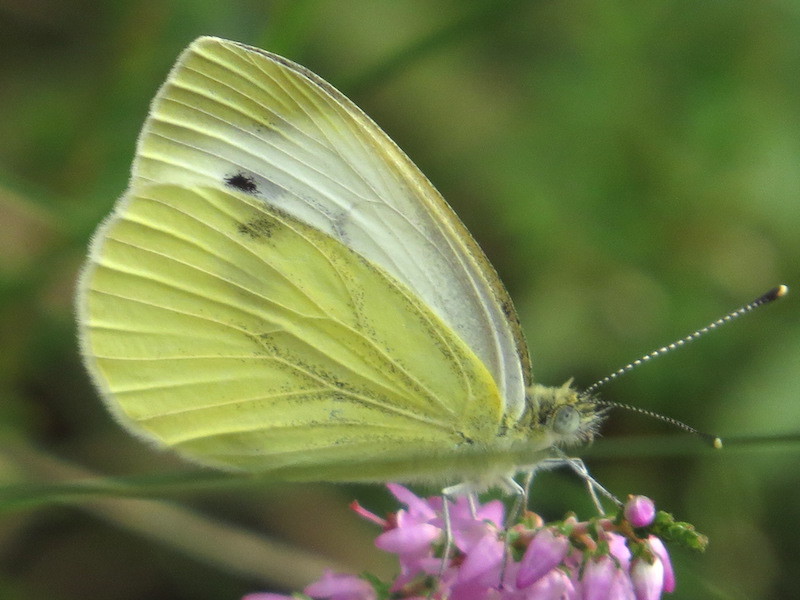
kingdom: Animalia
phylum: Arthropoda
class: Insecta
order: Lepidoptera
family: Pieridae
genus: Pieris
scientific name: Pieris napi
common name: Green-veined white
